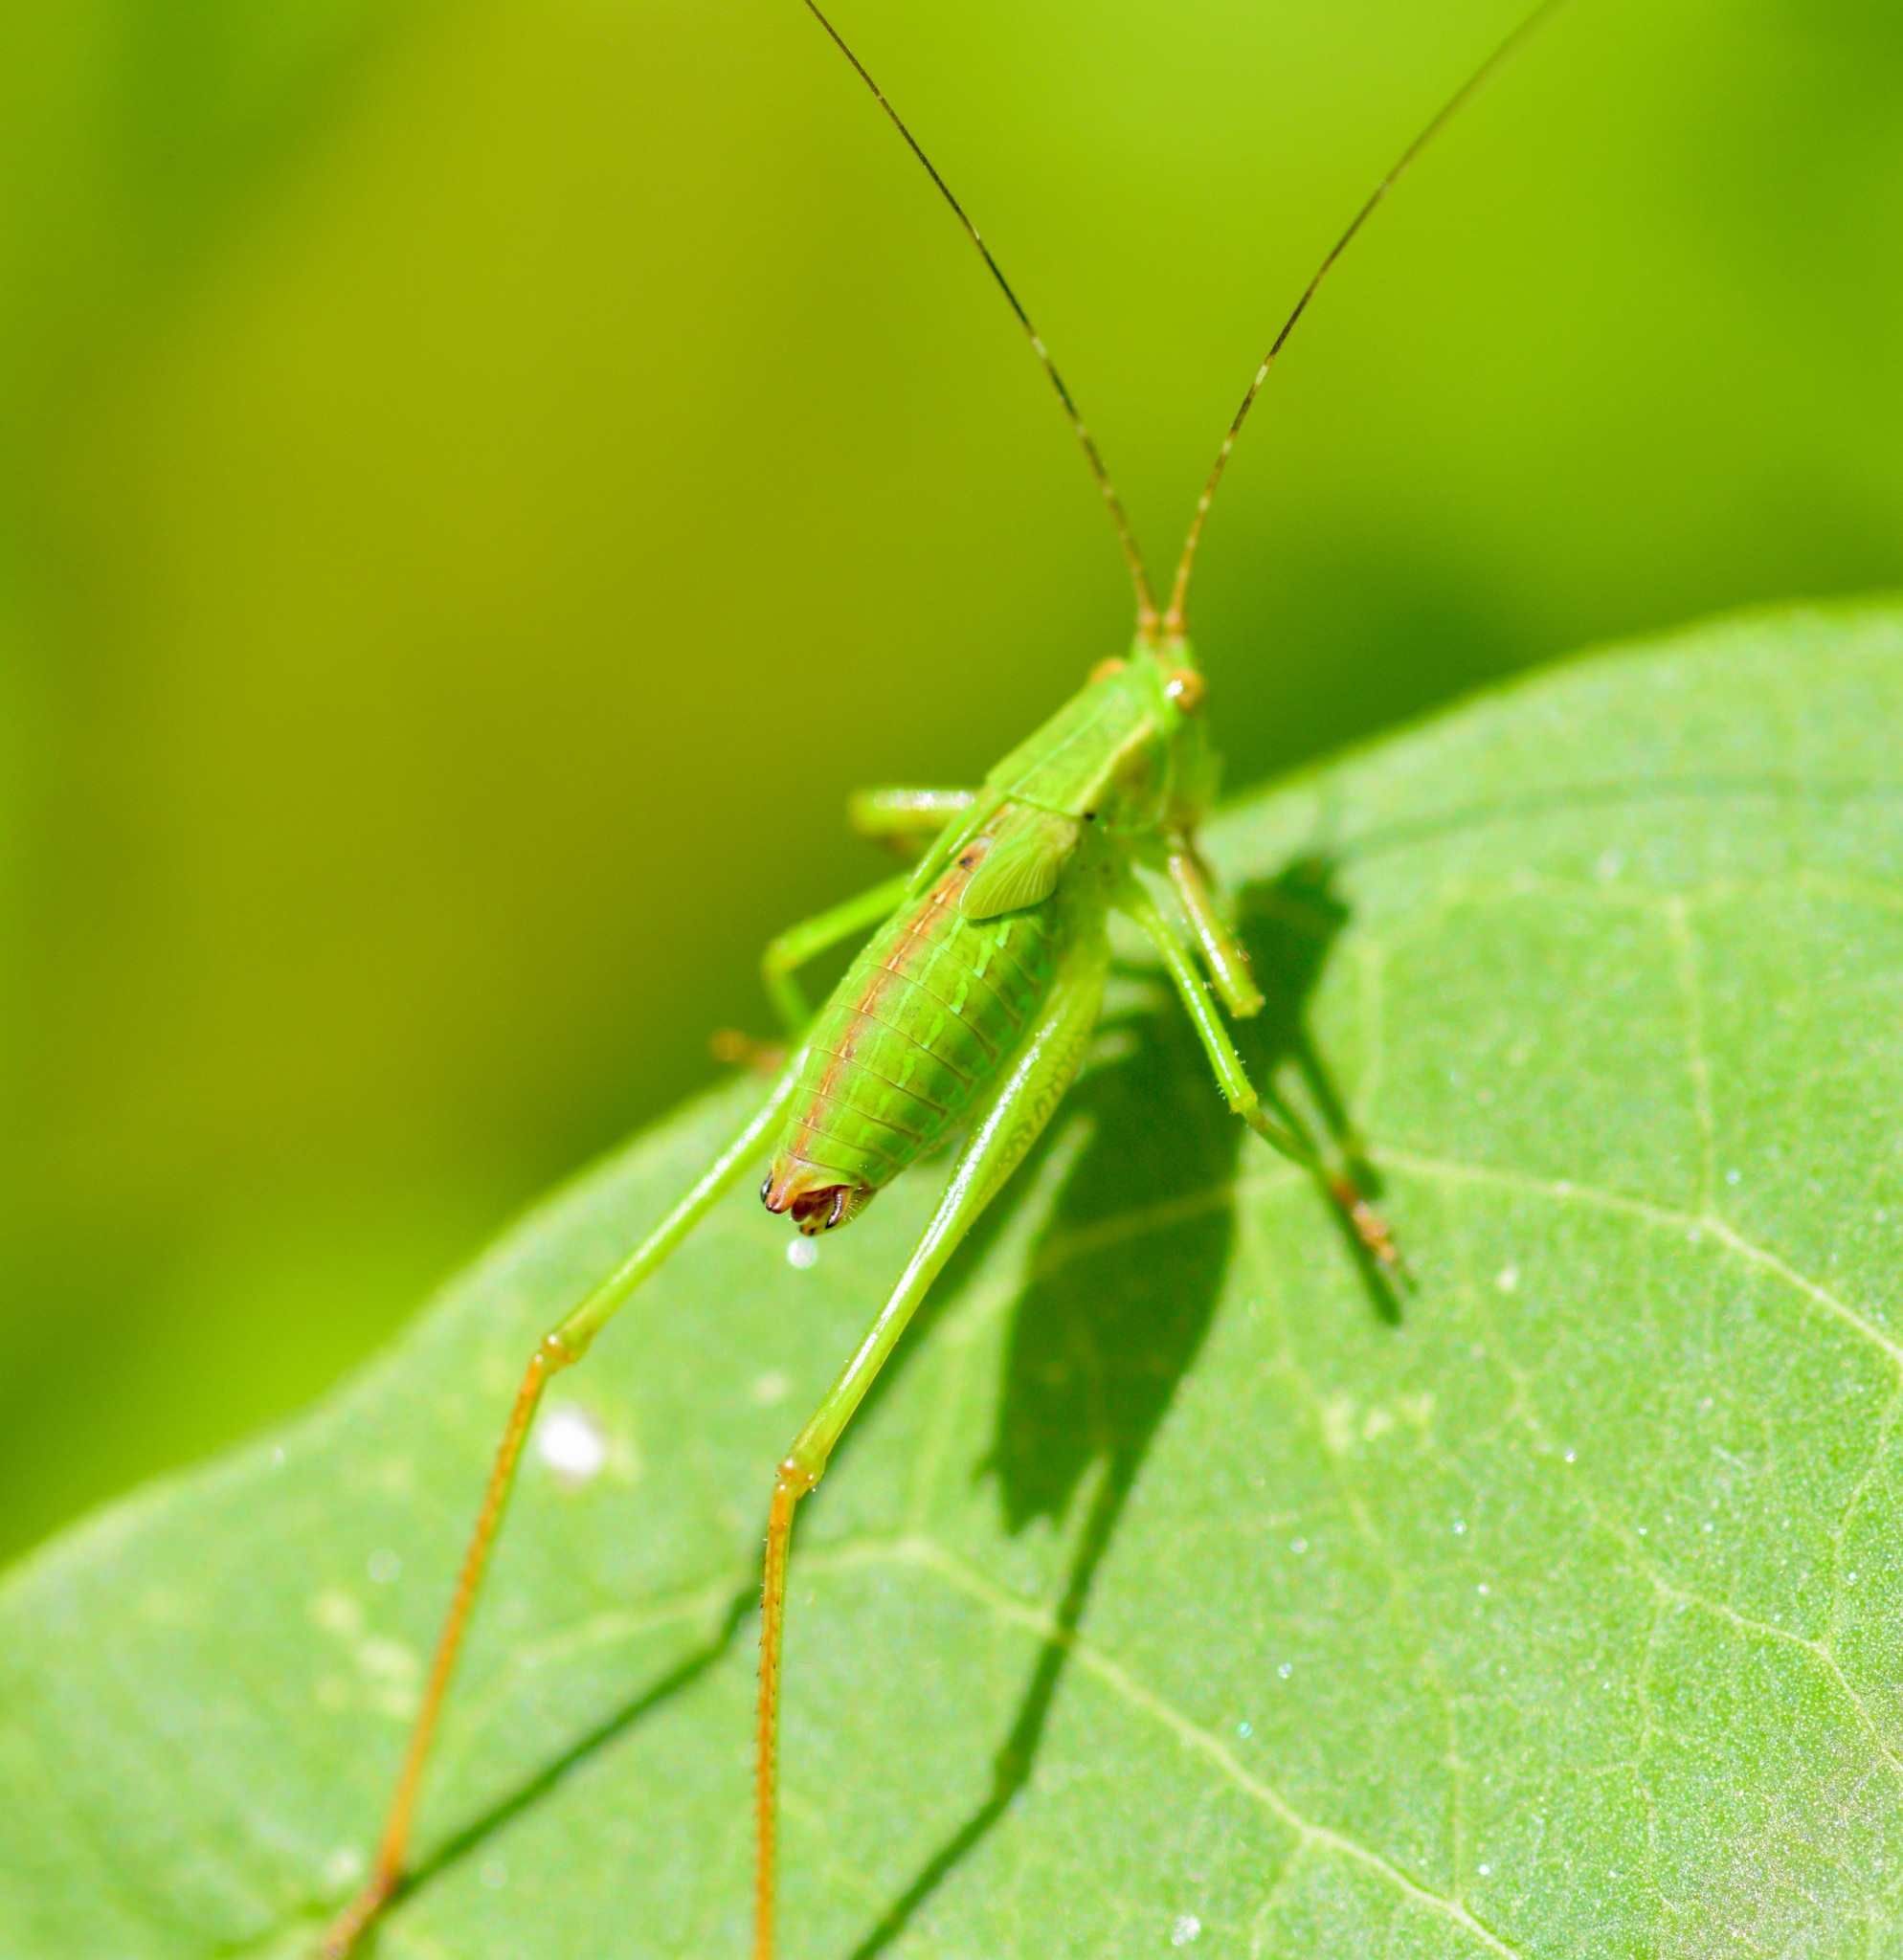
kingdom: Animalia
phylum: Arthropoda
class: Insecta
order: Orthoptera
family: Tettigoniidae
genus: Scudderia
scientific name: Scudderia furcata
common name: Fork-tailed bush katydid
